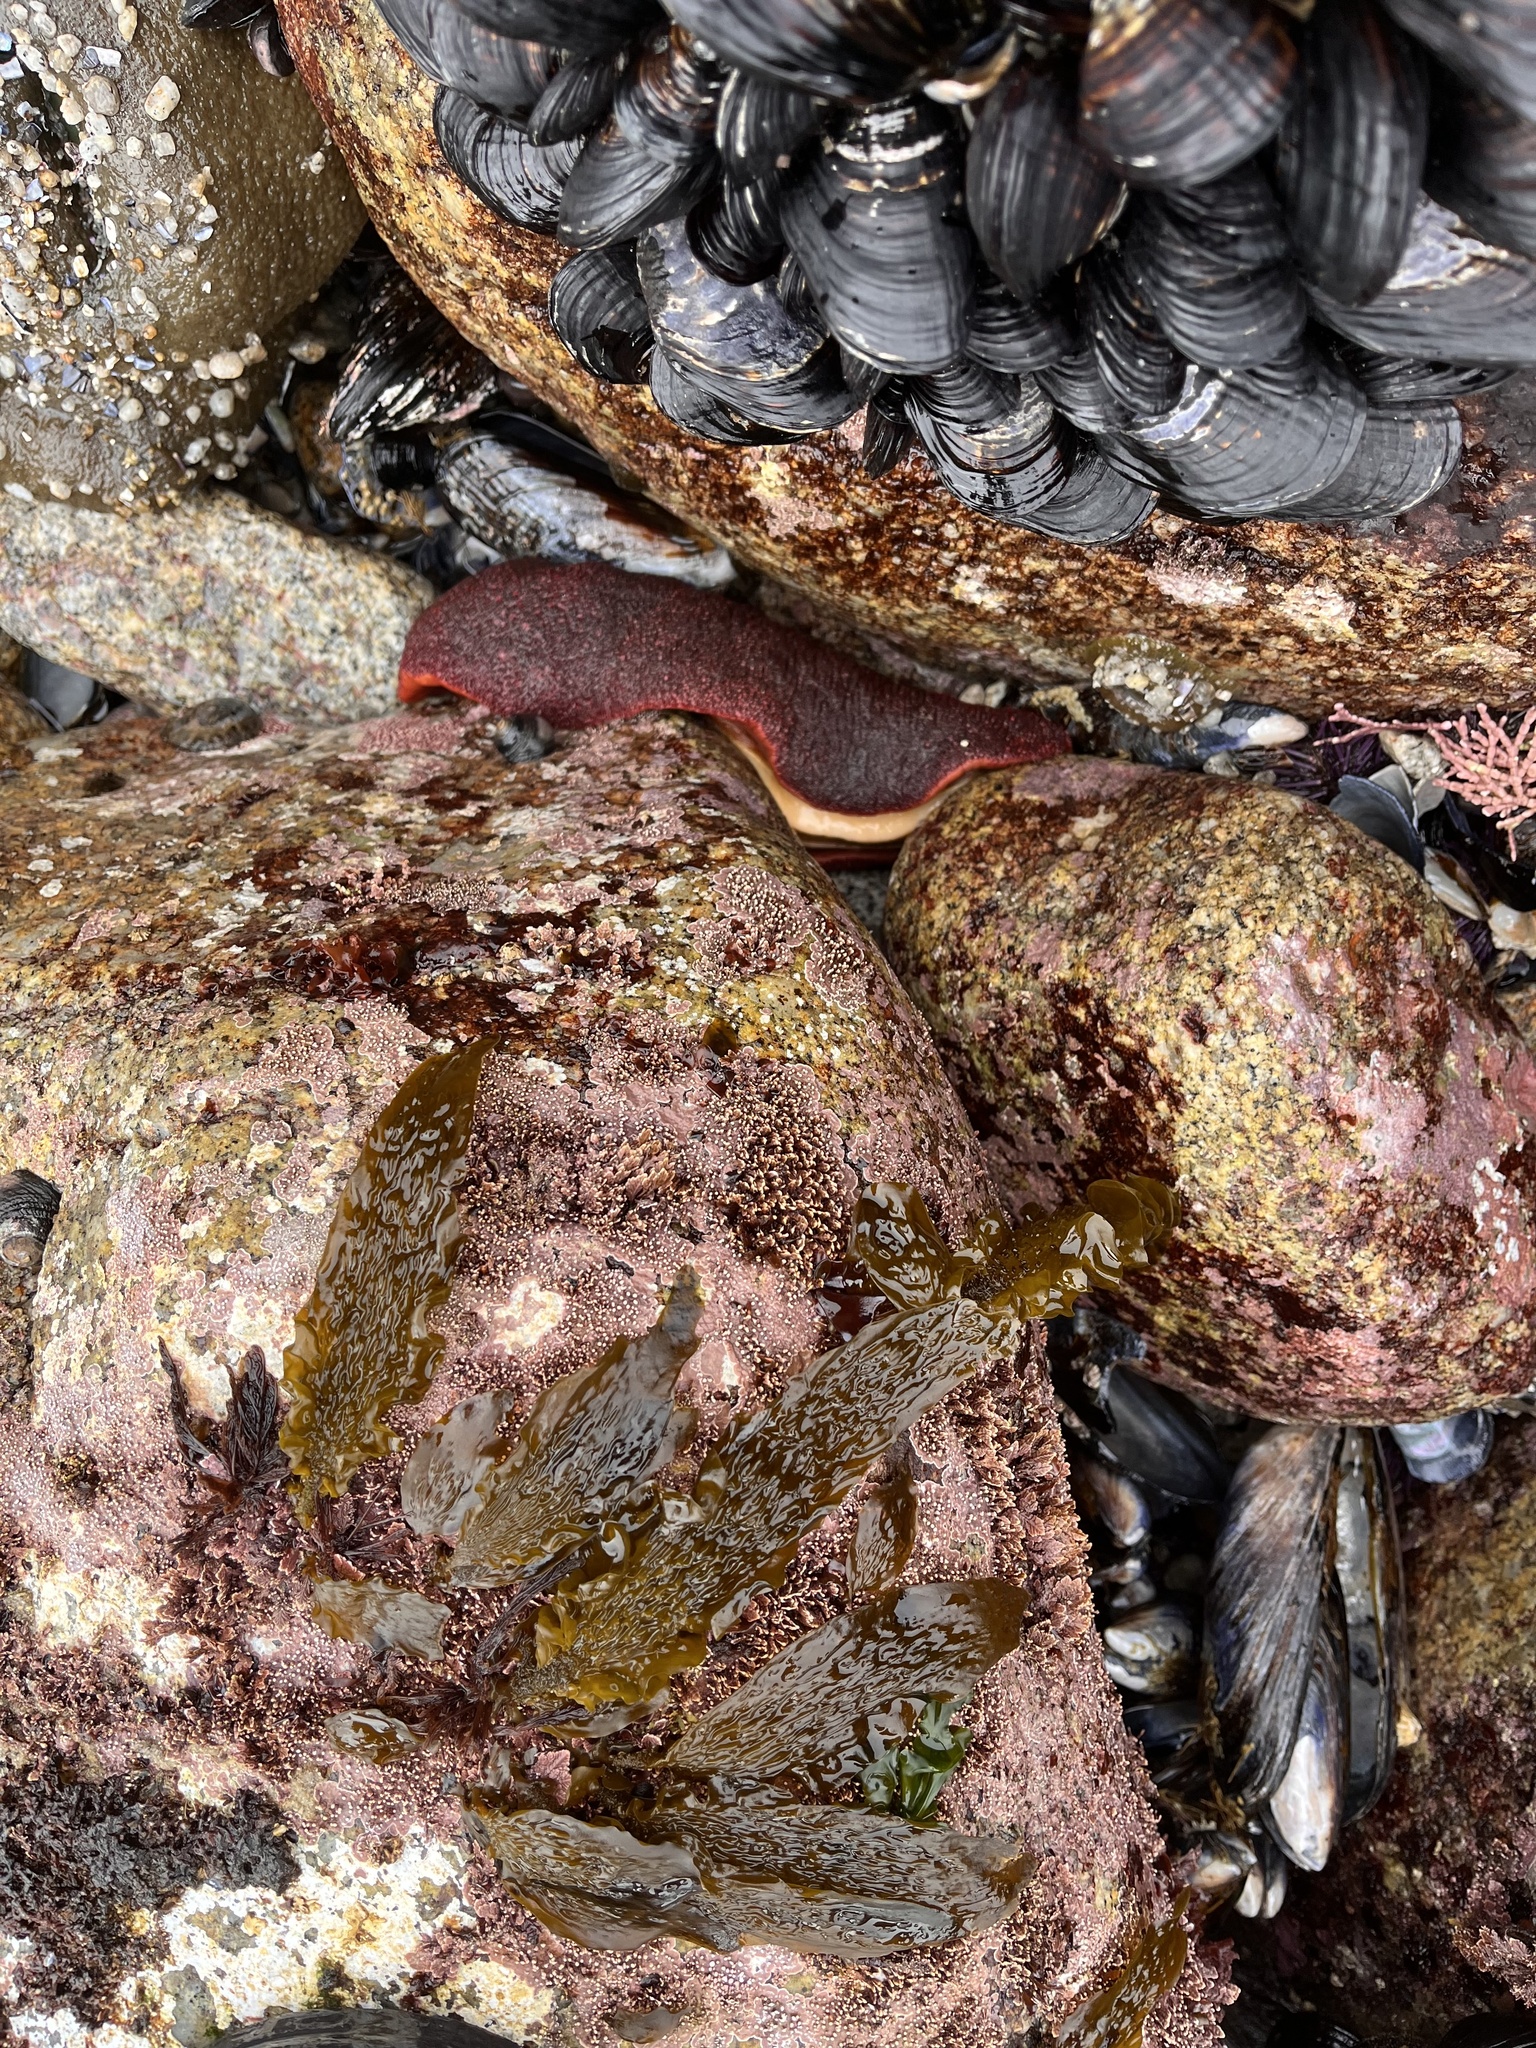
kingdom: Animalia
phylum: Mollusca
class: Polyplacophora
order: Chitonida
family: Acanthochitonidae
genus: Cryptochiton
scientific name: Cryptochiton stelleri
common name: Giant pacific chiton
